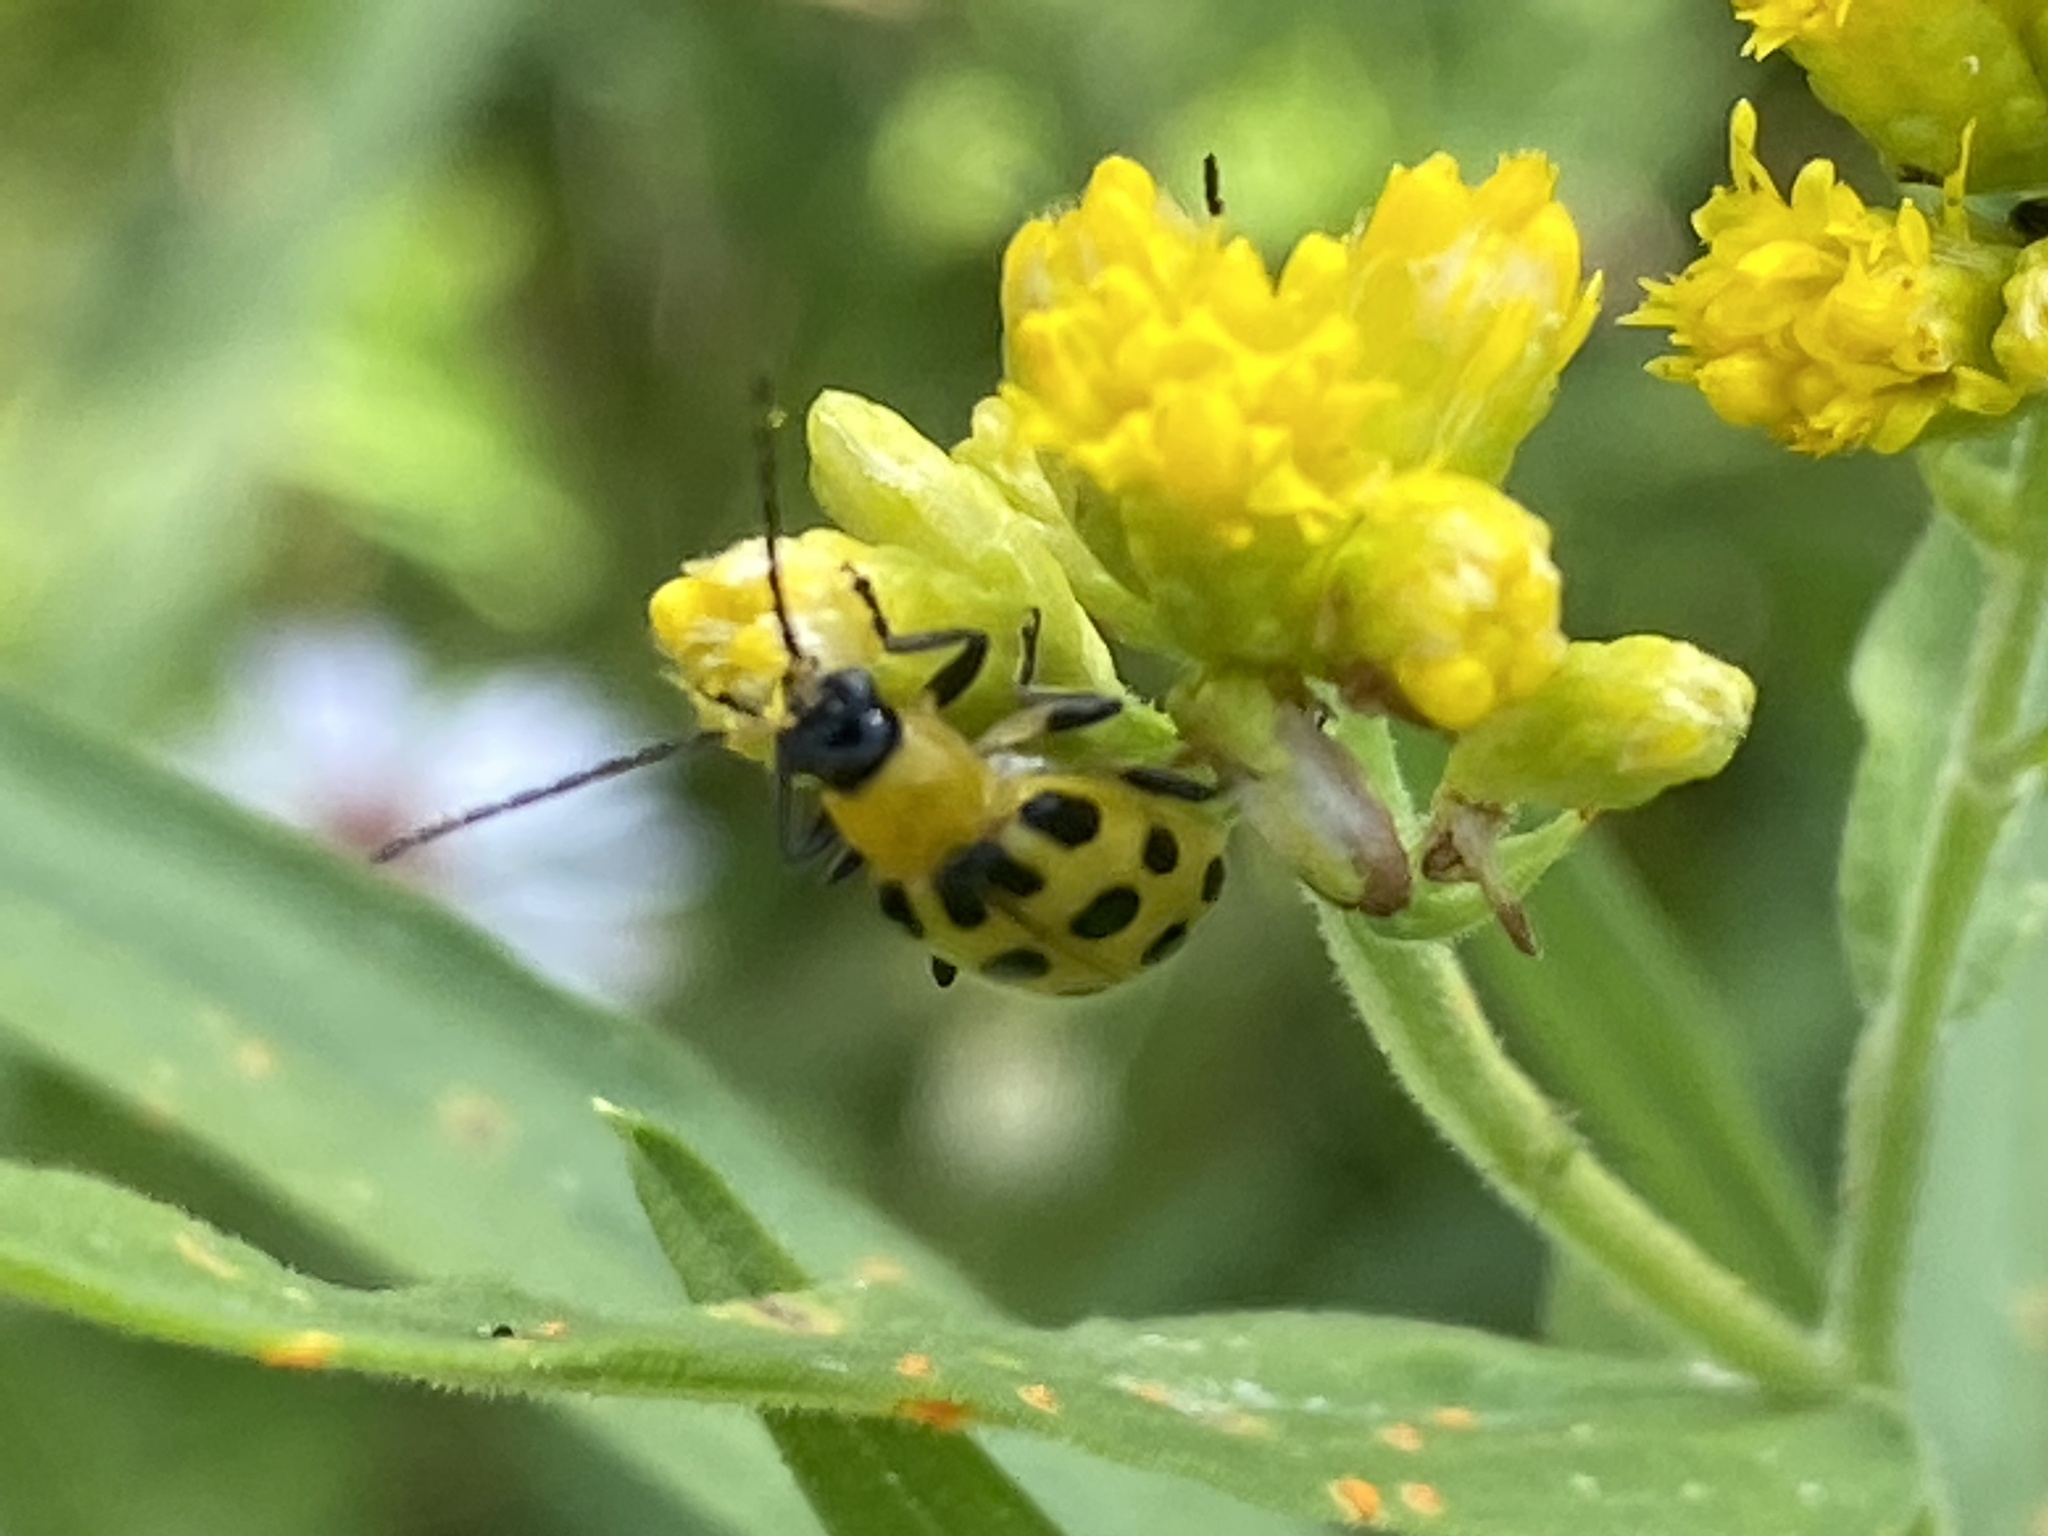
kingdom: Animalia
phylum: Arthropoda
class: Insecta
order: Coleoptera
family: Chrysomelidae
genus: Diabrotica
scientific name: Diabrotica undecimpunctata
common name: Spotted cucumber beetle
